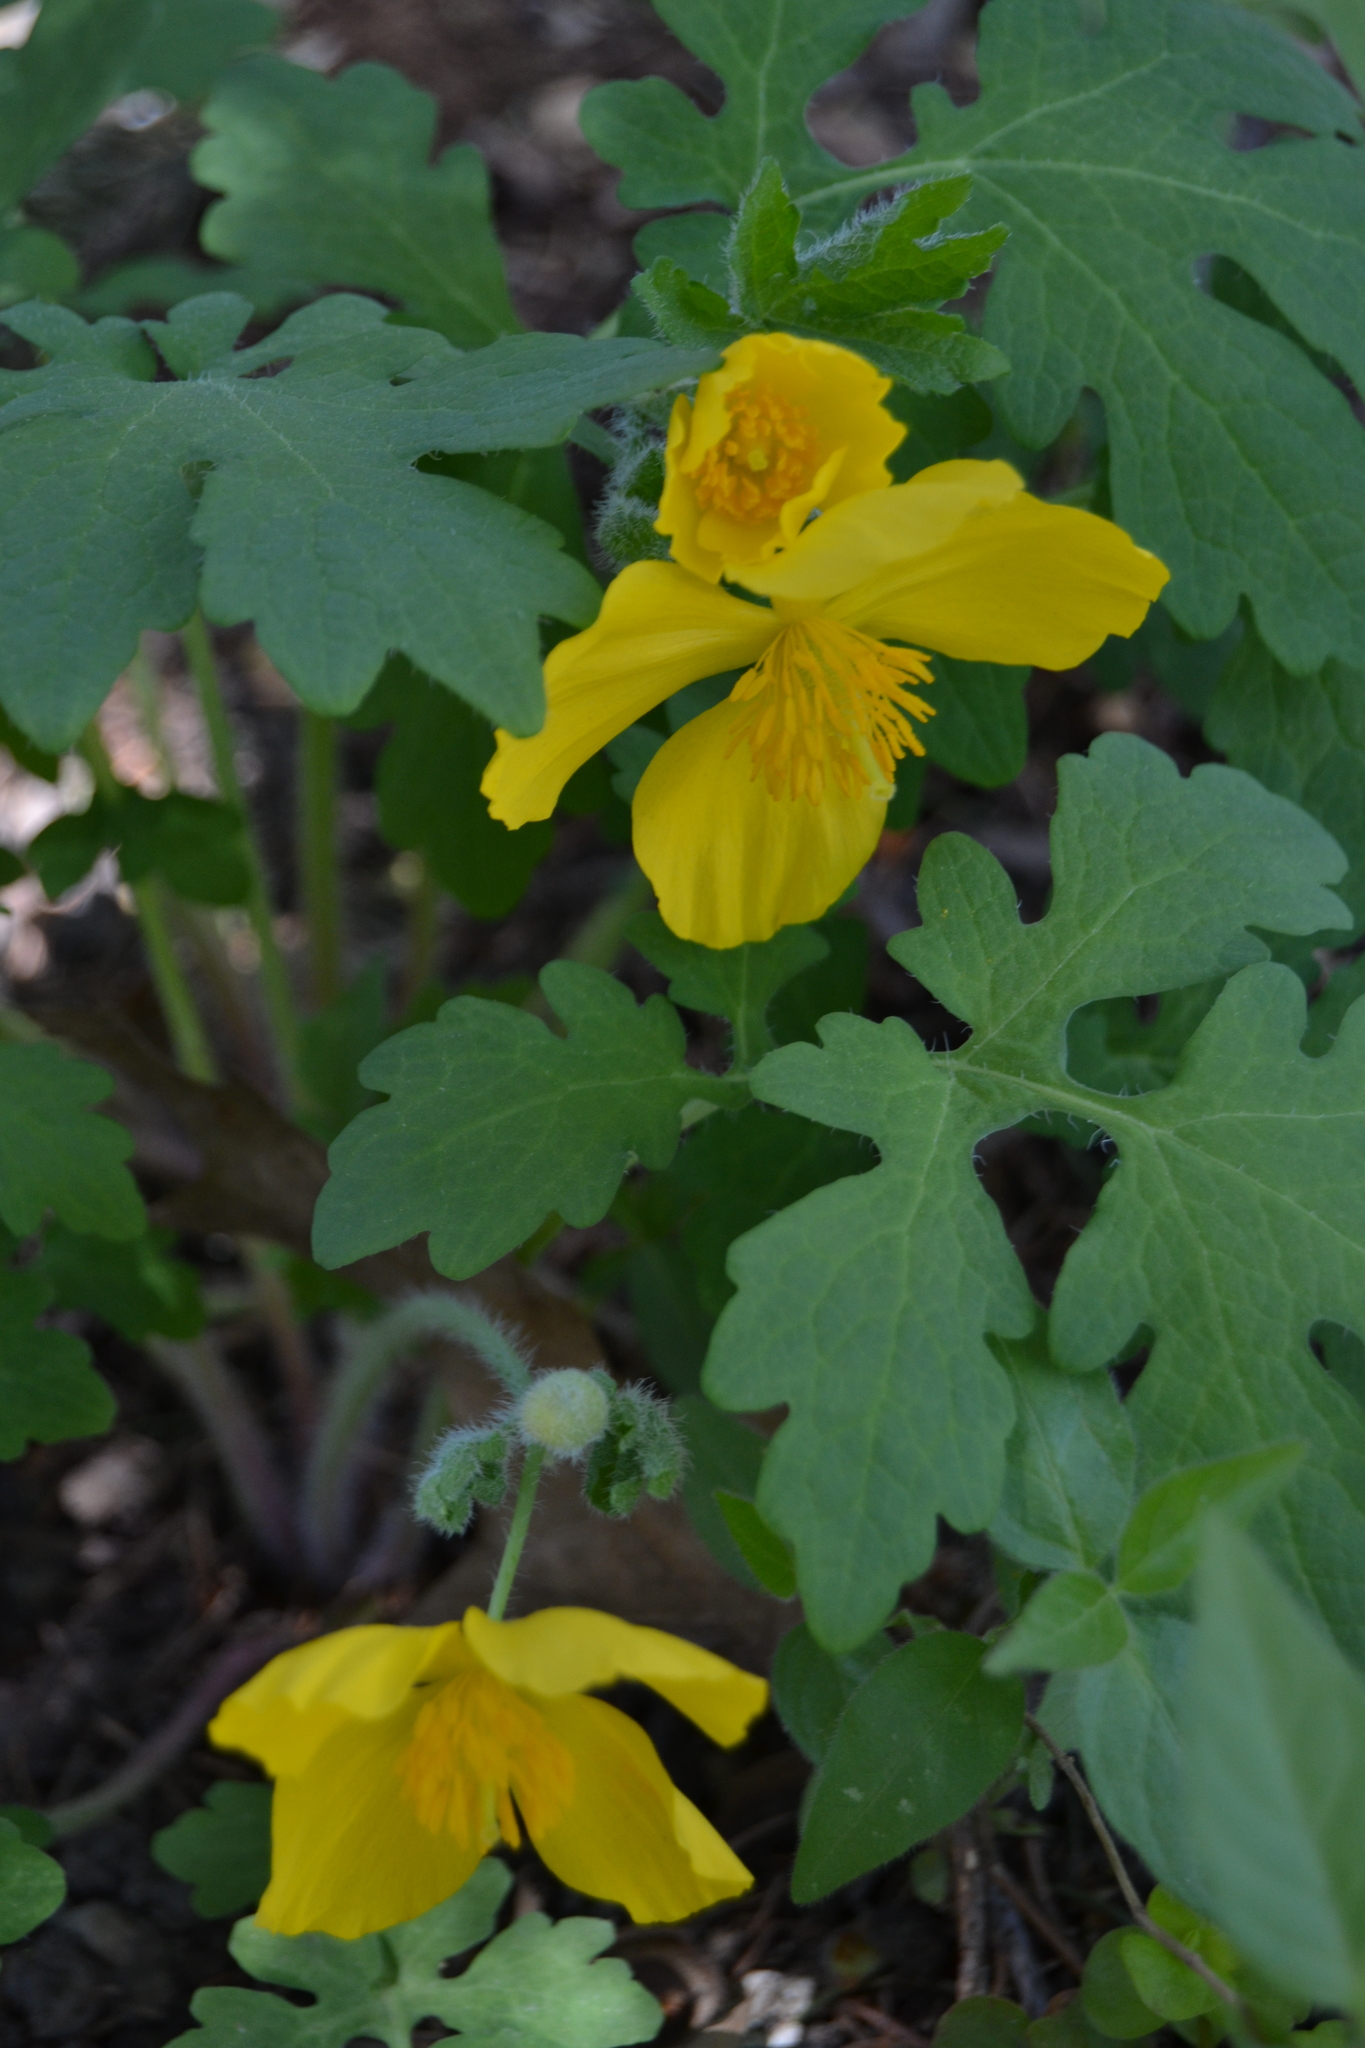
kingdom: Plantae
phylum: Tracheophyta
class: Magnoliopsida
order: Ranunculales
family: Papaveraceae
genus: Stylophorum
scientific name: Stylophorum diphyllum
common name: Celandine poppy
